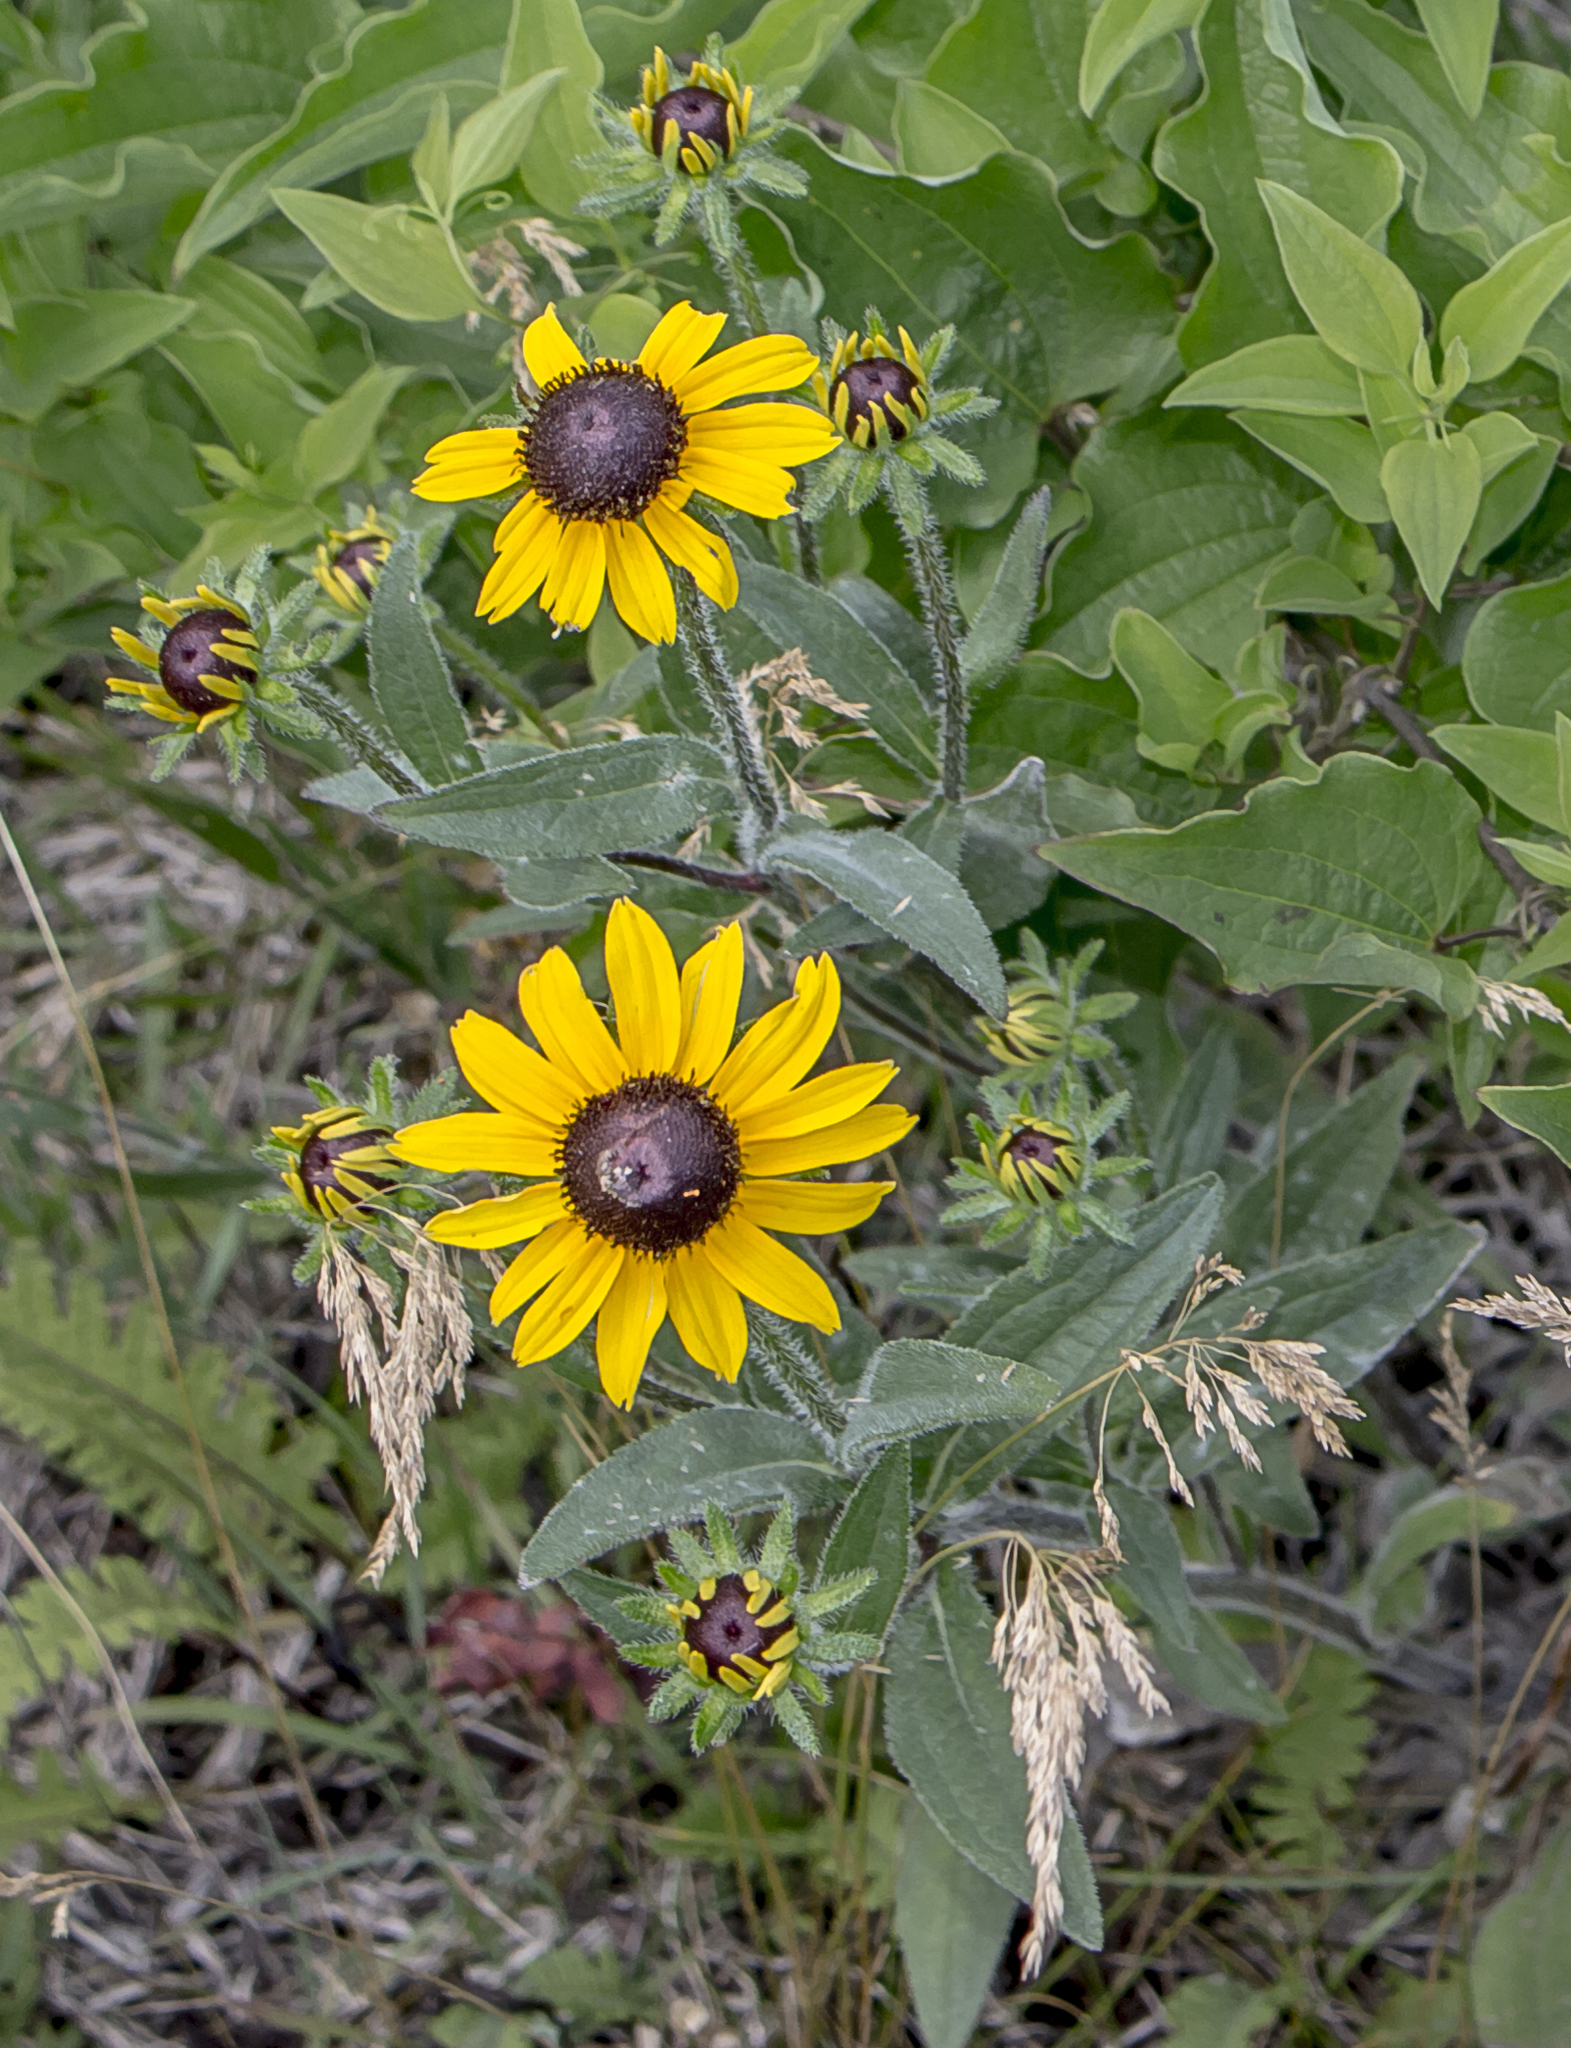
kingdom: Plantae
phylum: Tracheophyta
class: Magnoliopsida
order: Asterales
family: Asteraceae
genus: Rudbeckia
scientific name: Rudbeckia hirta
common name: Black-eyed-susan
